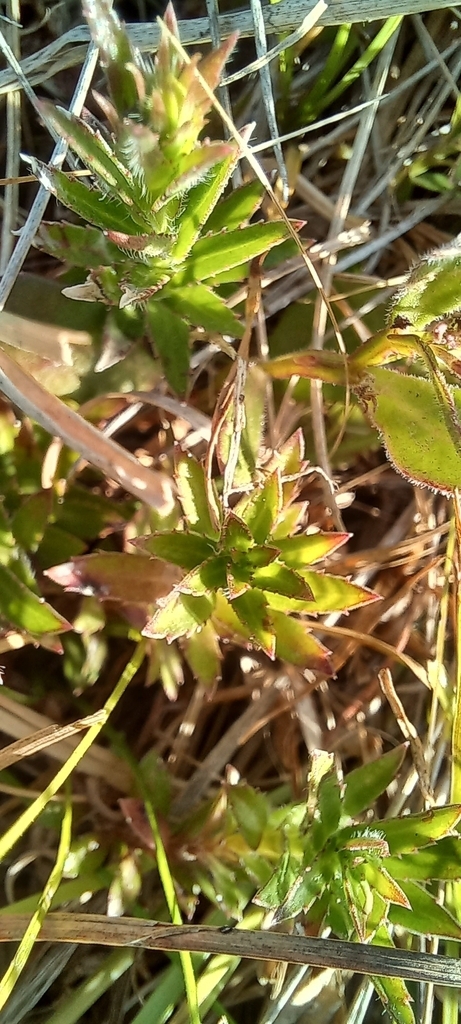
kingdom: Plantae
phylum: Tracheophyta
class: Magnoliopsida
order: Asterales
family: Campanulaceae
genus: Lobelia
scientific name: Lobelia anceps
